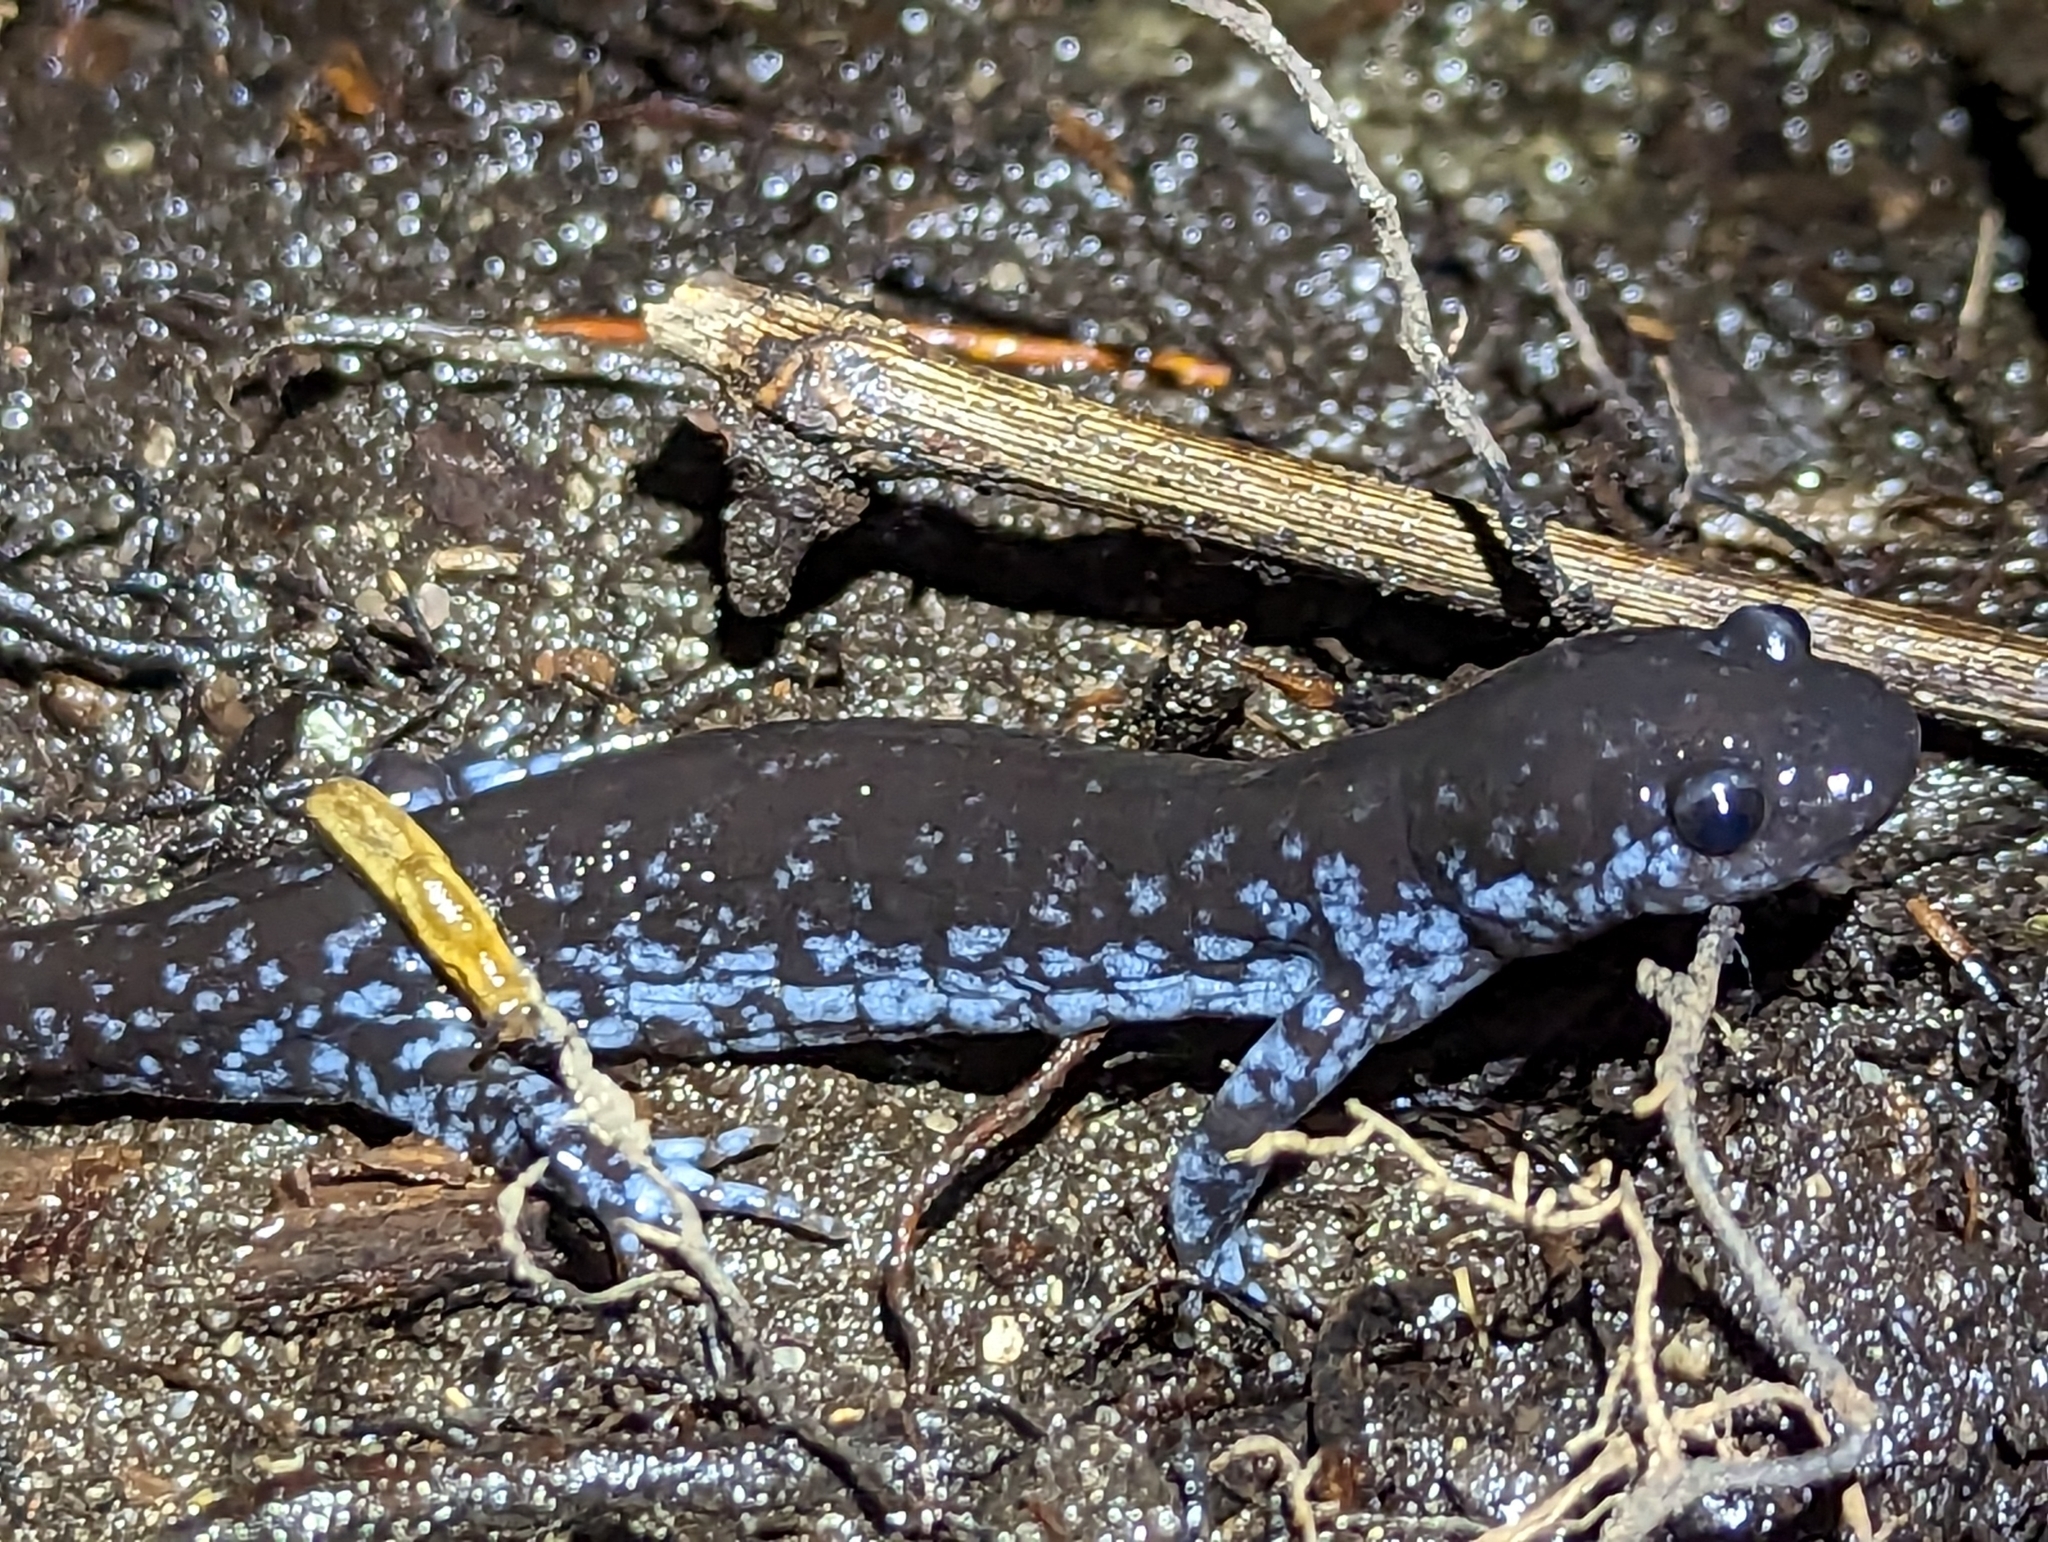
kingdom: Animalia
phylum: Chordata
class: Amphibia
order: Caudata
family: Ambystomatidae
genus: Ambystoma
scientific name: Ambystoma laterale
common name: Blue-spotted salamander
